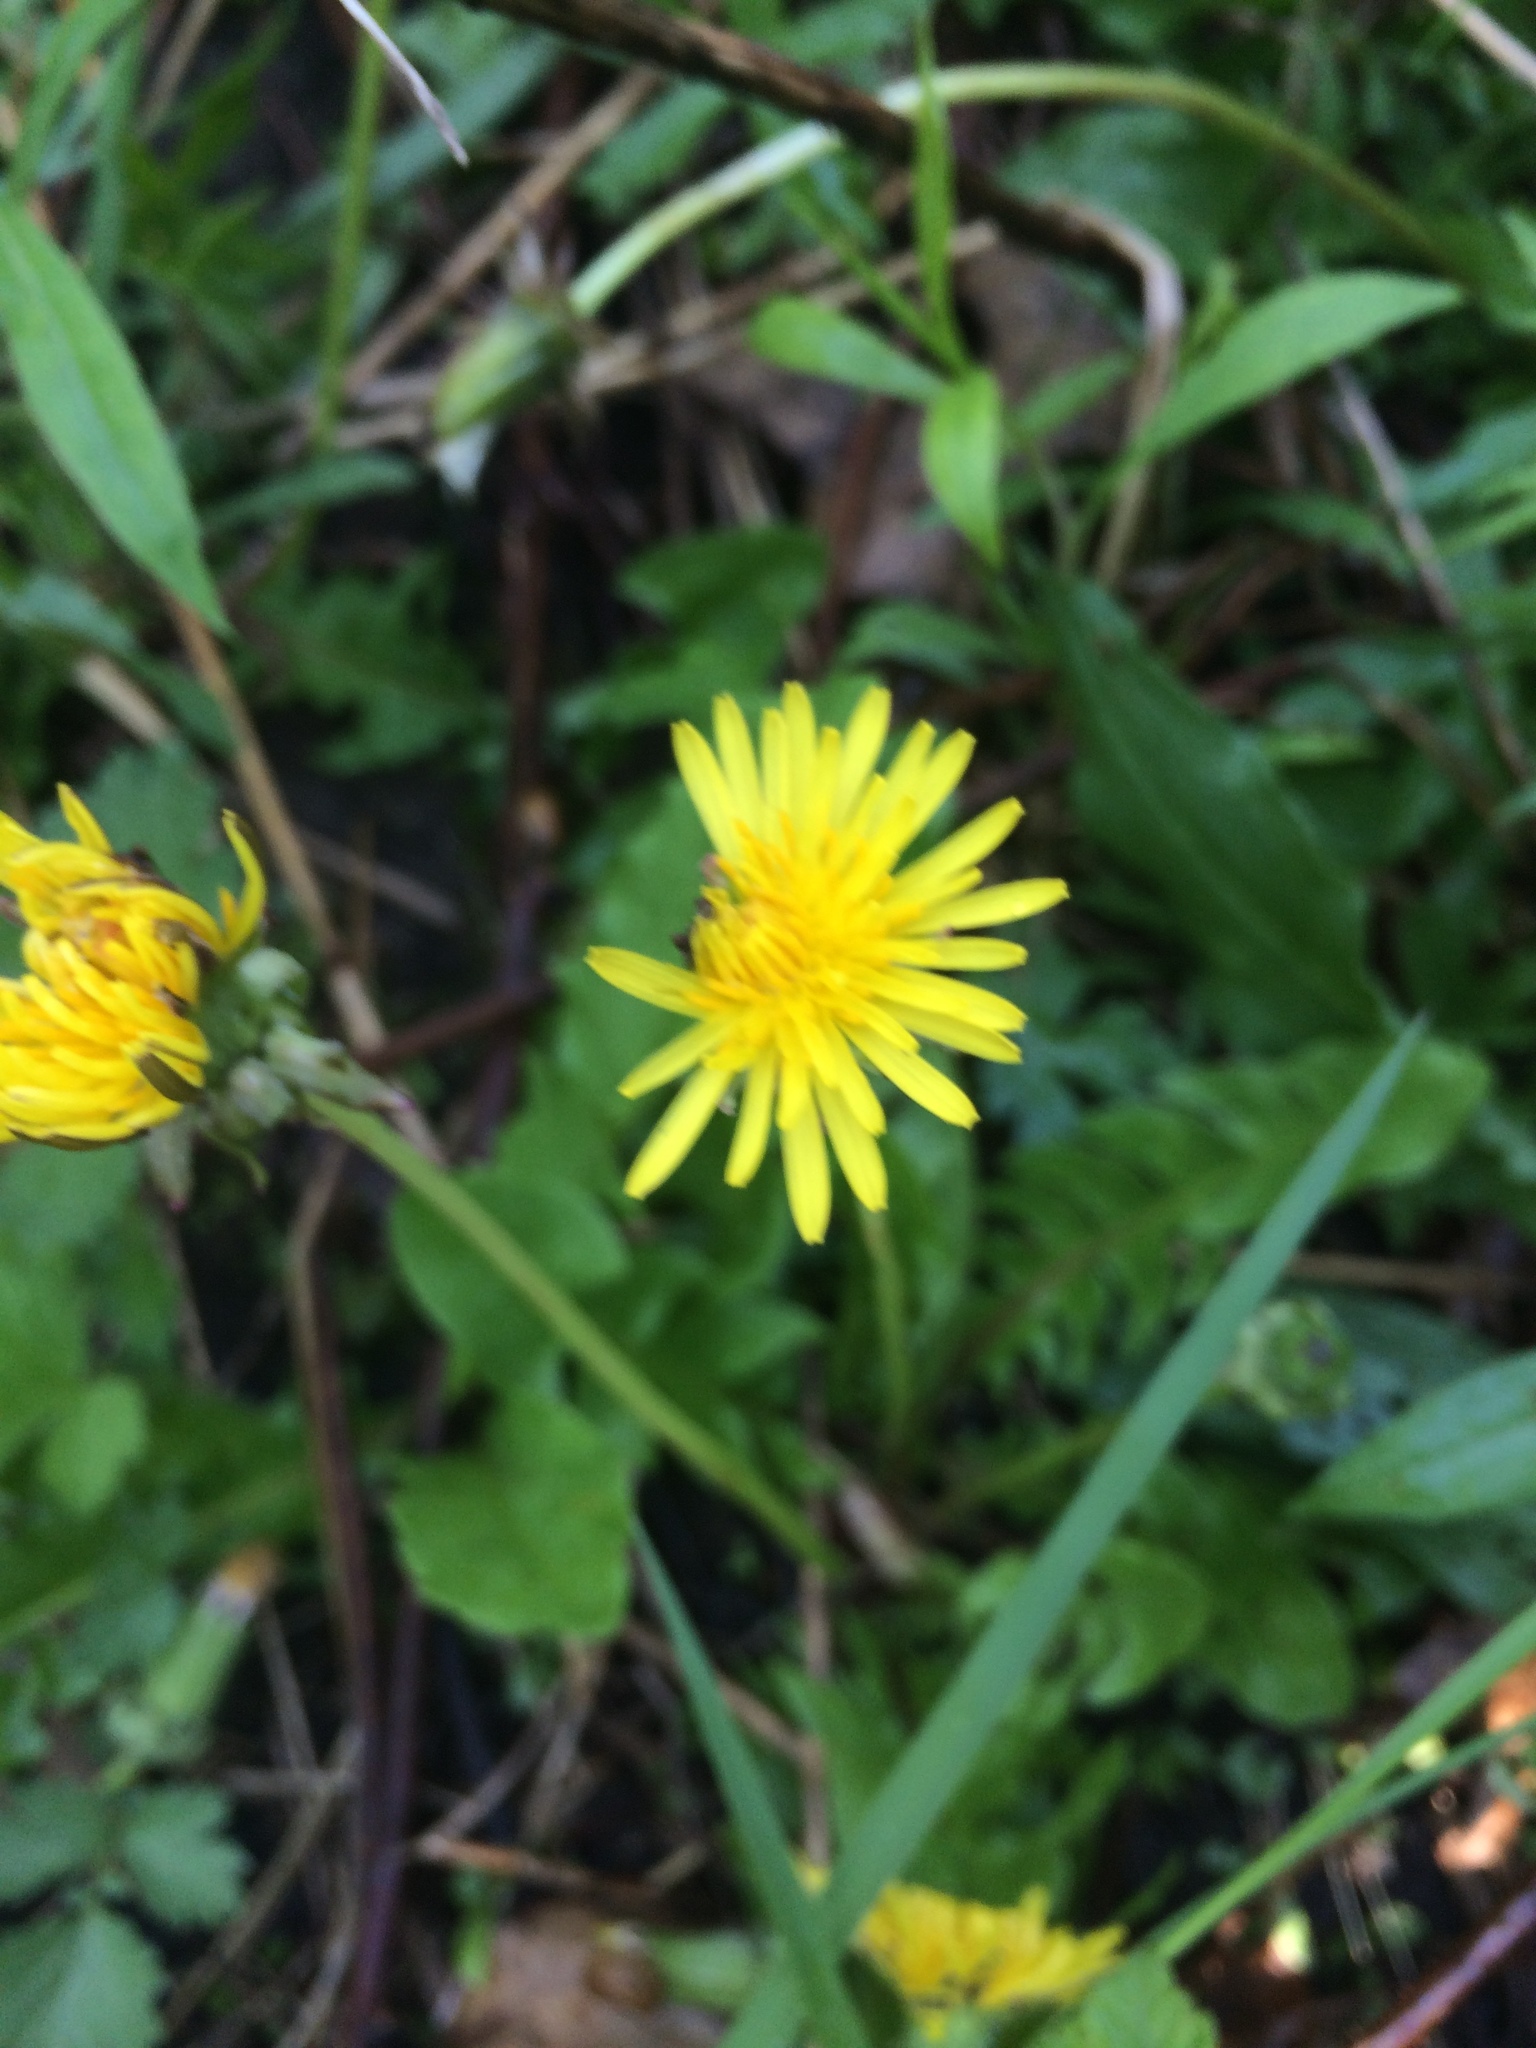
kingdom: Plantae
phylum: Tracheophyta
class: Magnoliopsida
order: Asterales
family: Asteraceae
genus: Taraxacum
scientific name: Taraxacum officinale
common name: Common dandelion
